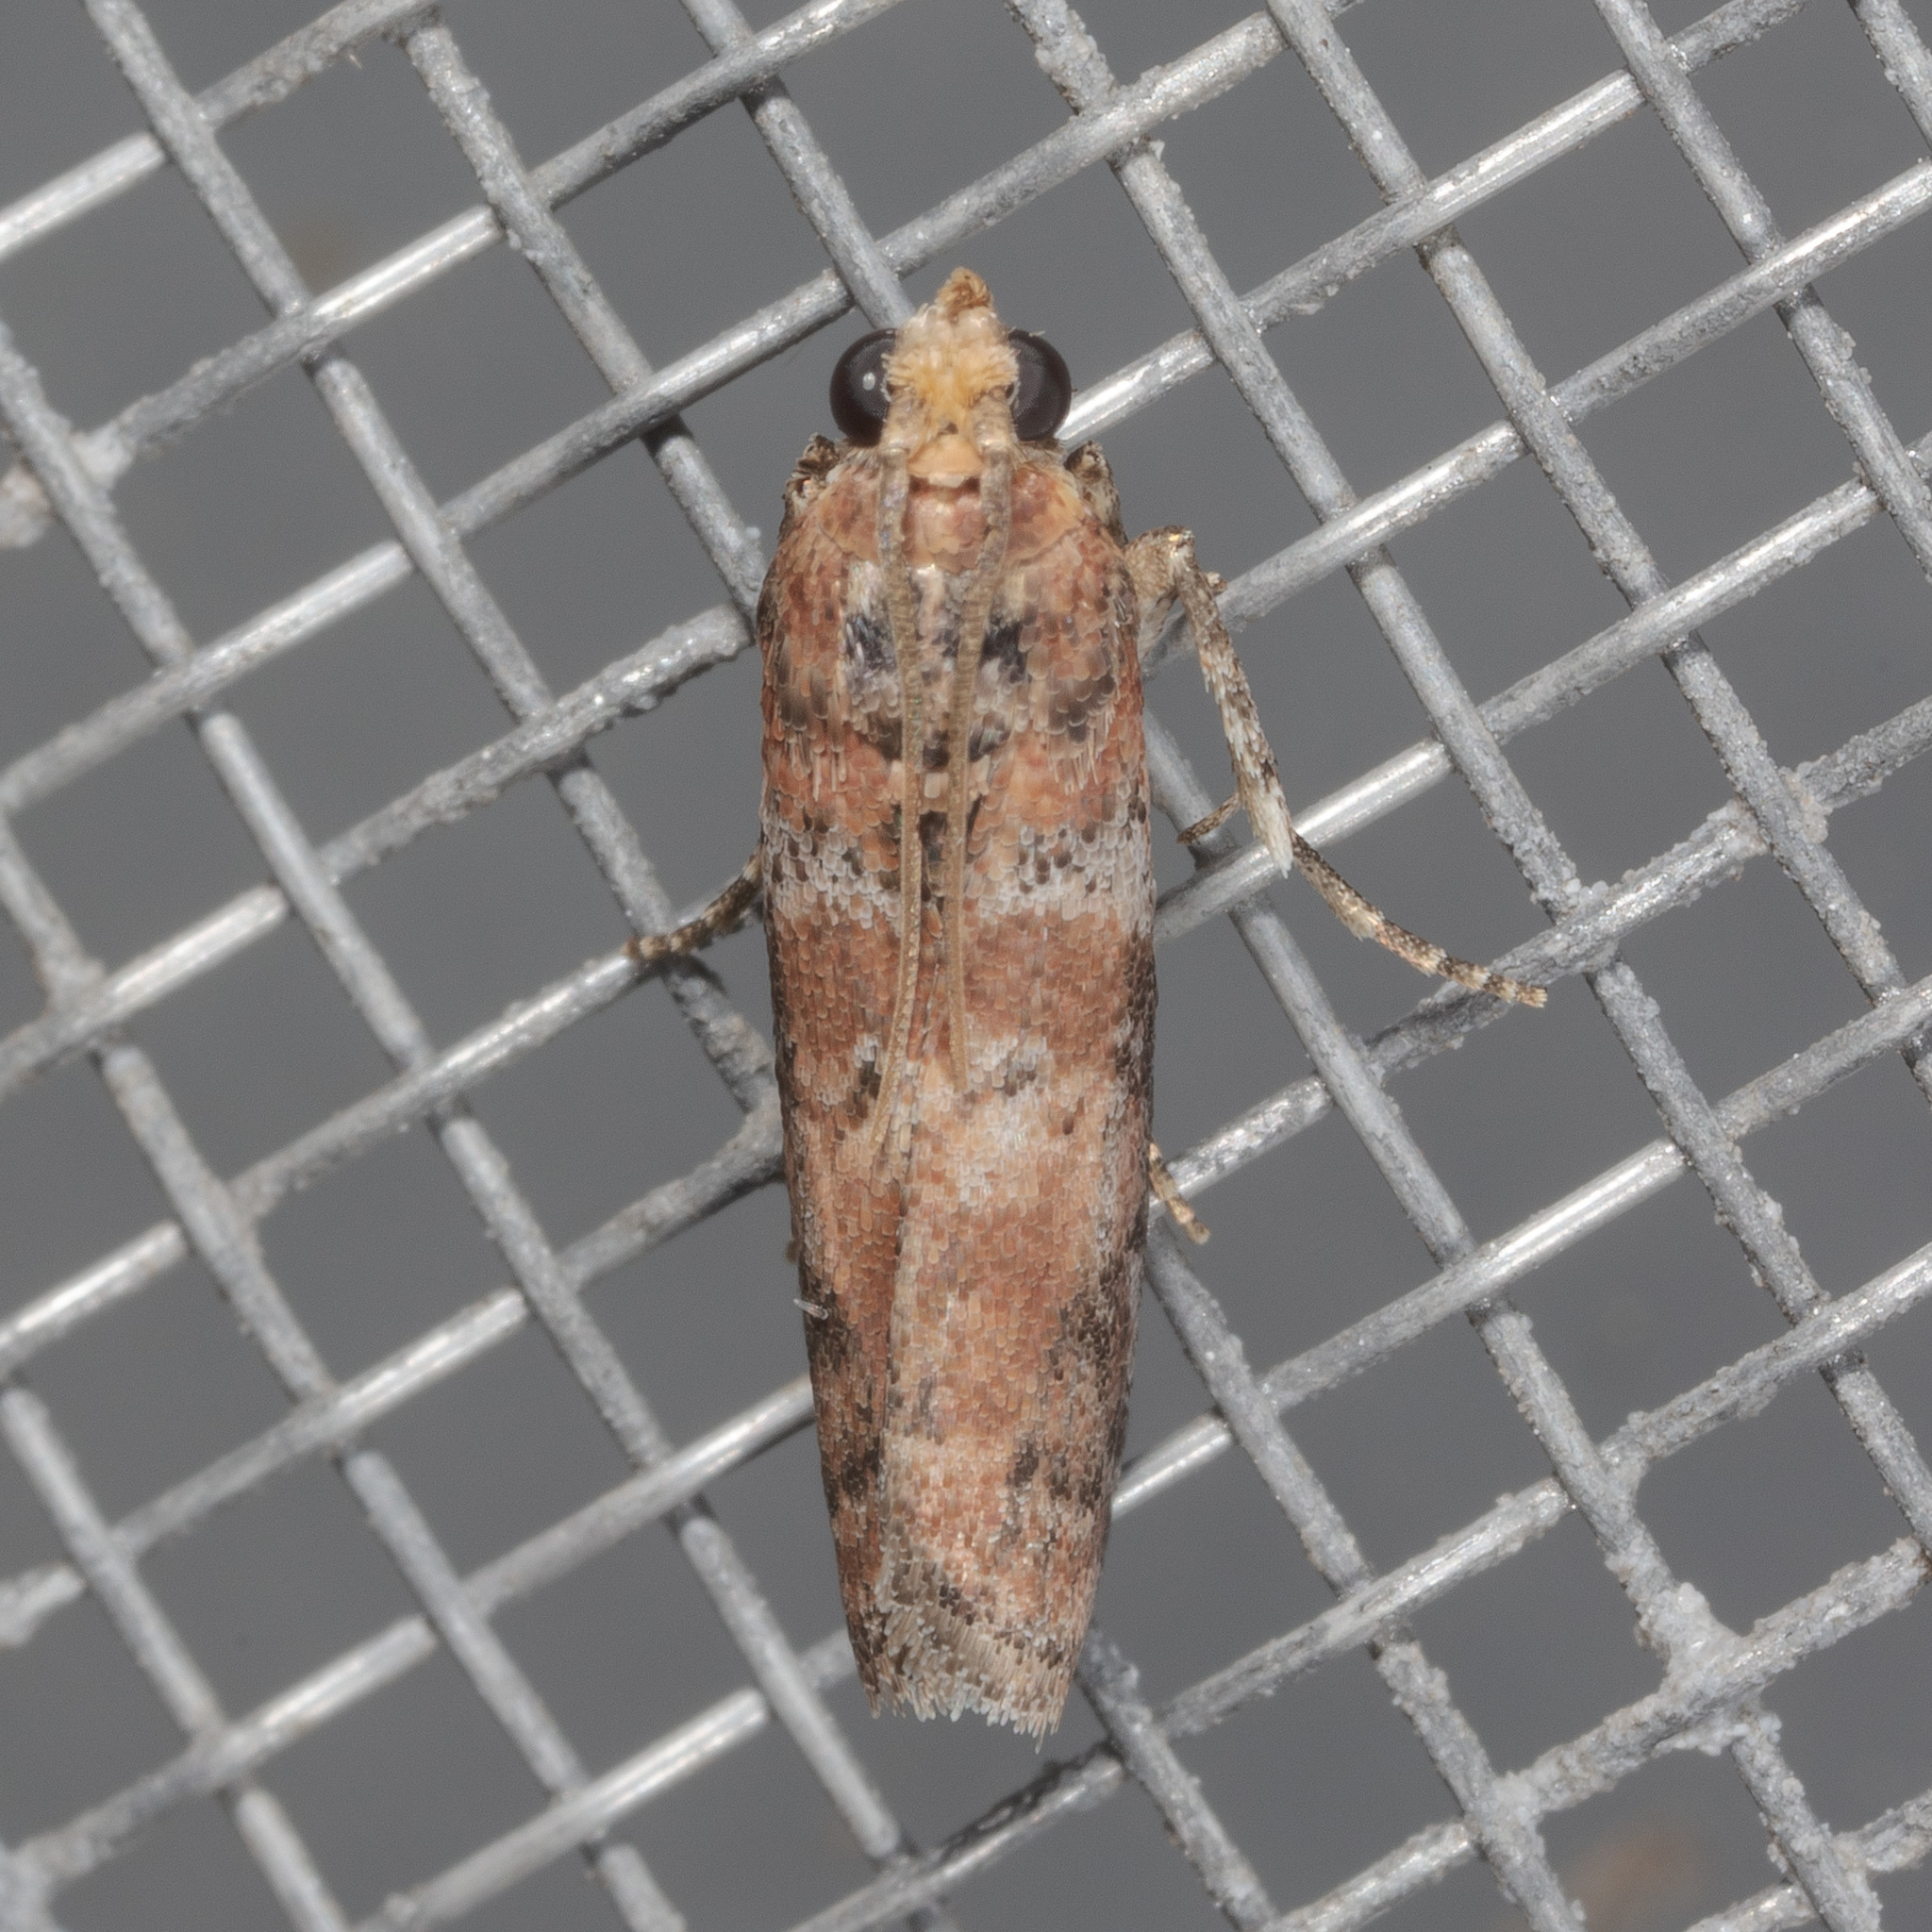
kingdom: Animalia
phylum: Arthropoda
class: Insecta
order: Lepidoptera
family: Pyralidae
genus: Sciota
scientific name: Sciota
